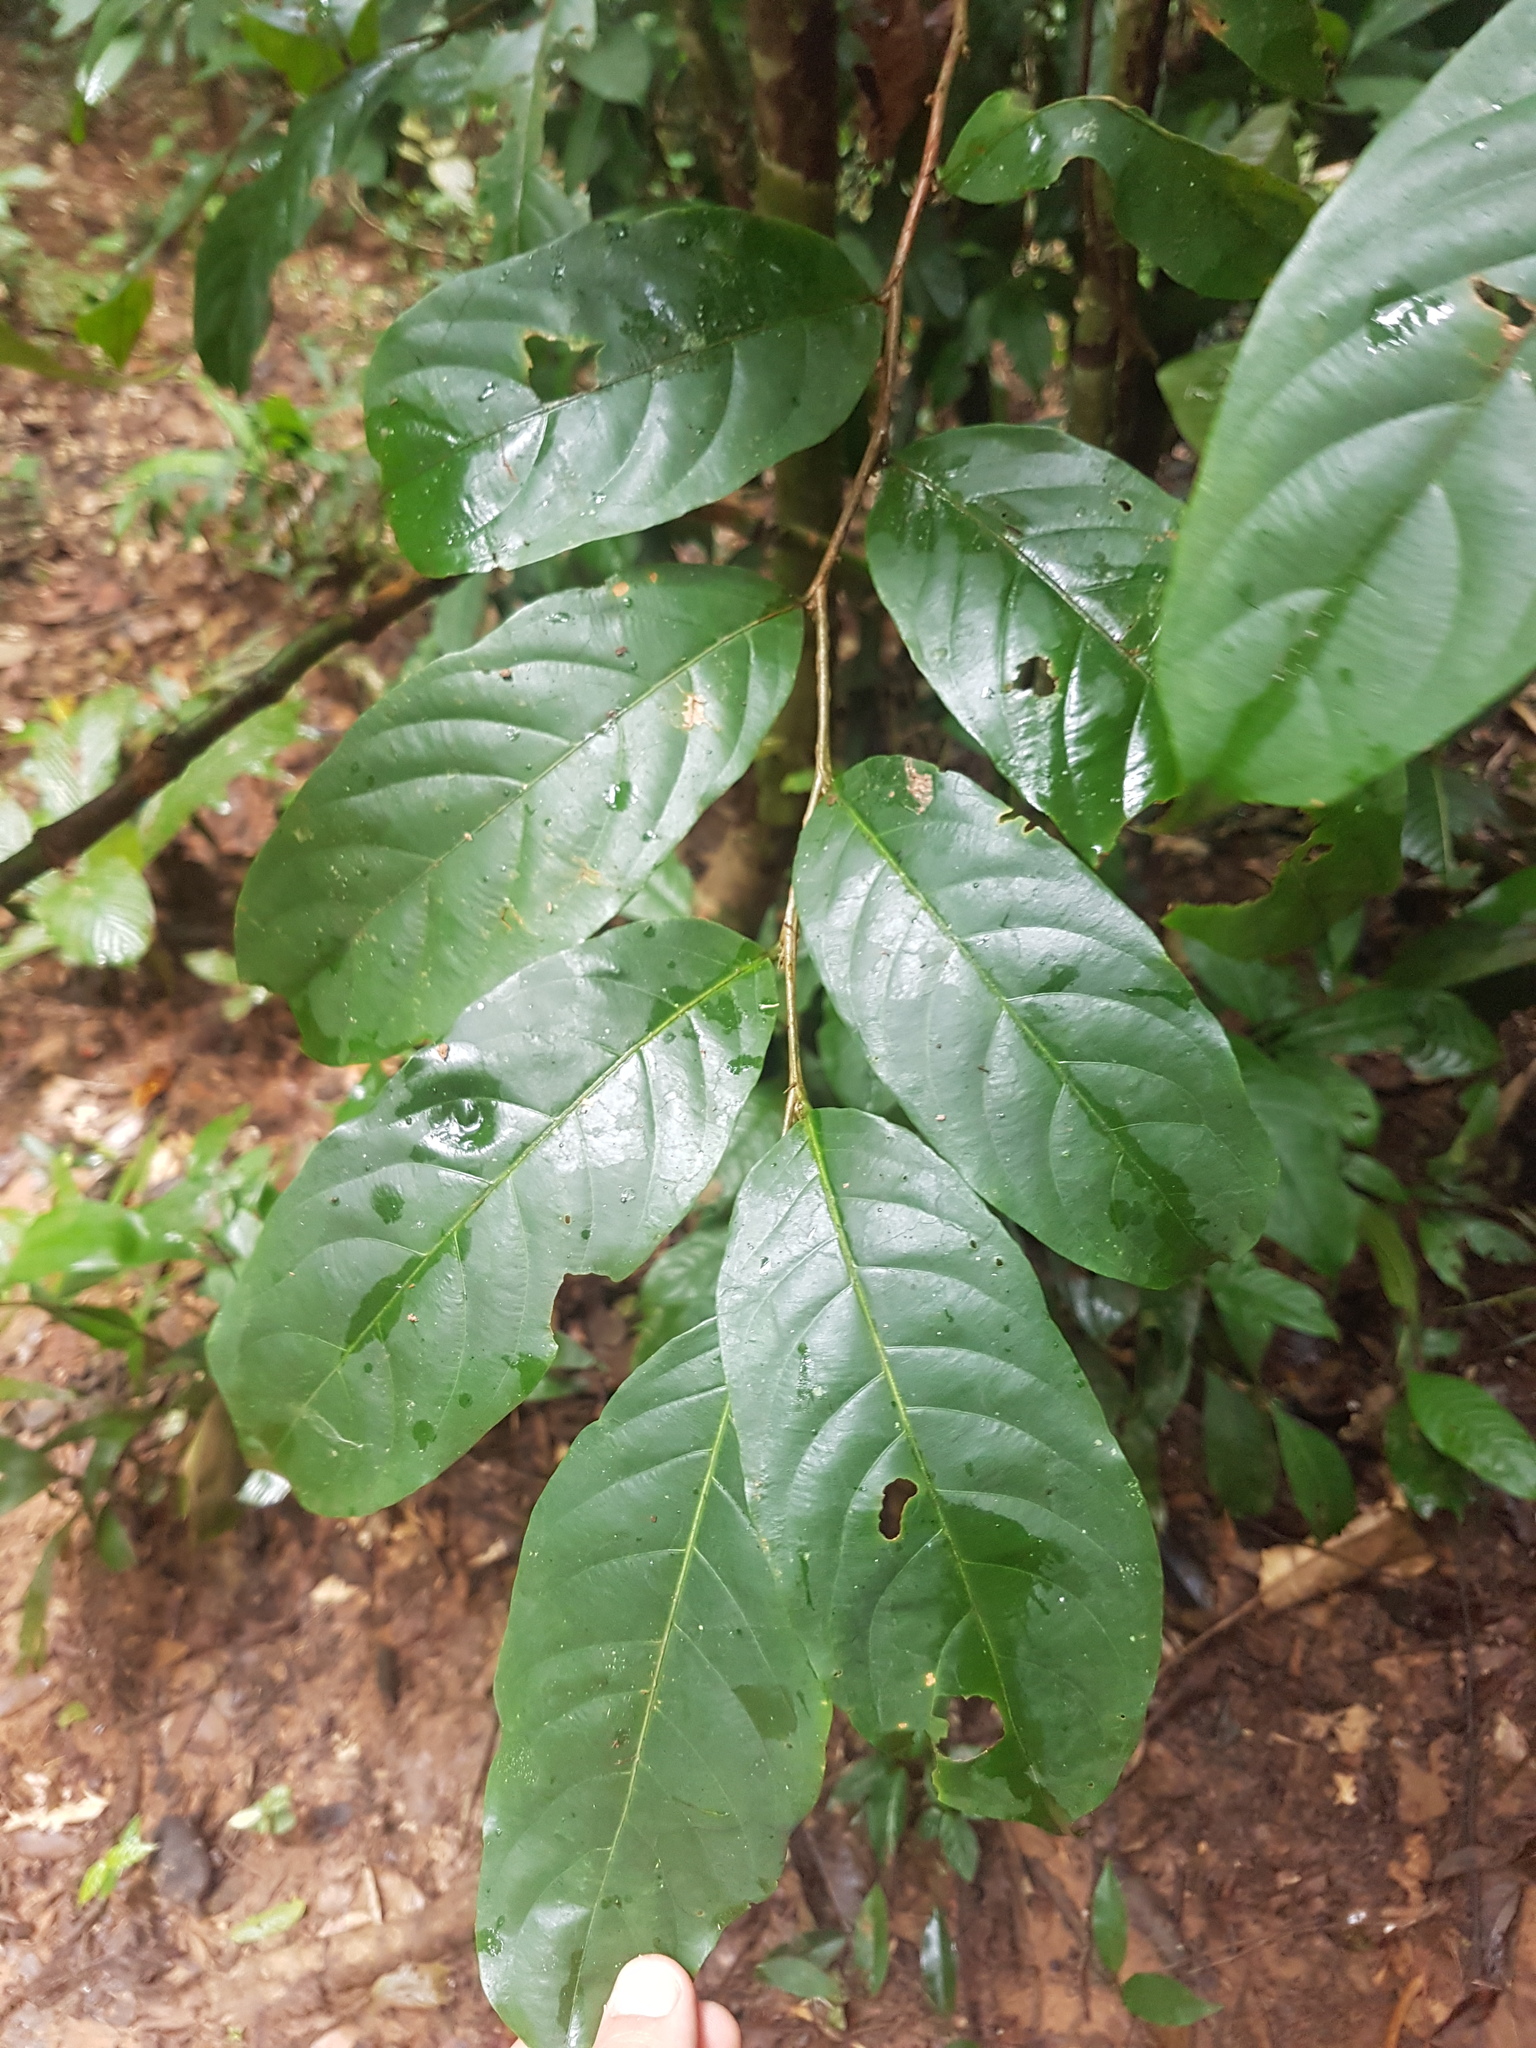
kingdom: Plantae
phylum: Tracheophyta
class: Magnoliopsida
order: Malpighiales
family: Salicaceae
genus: Ryania
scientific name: Ryania speciosa
